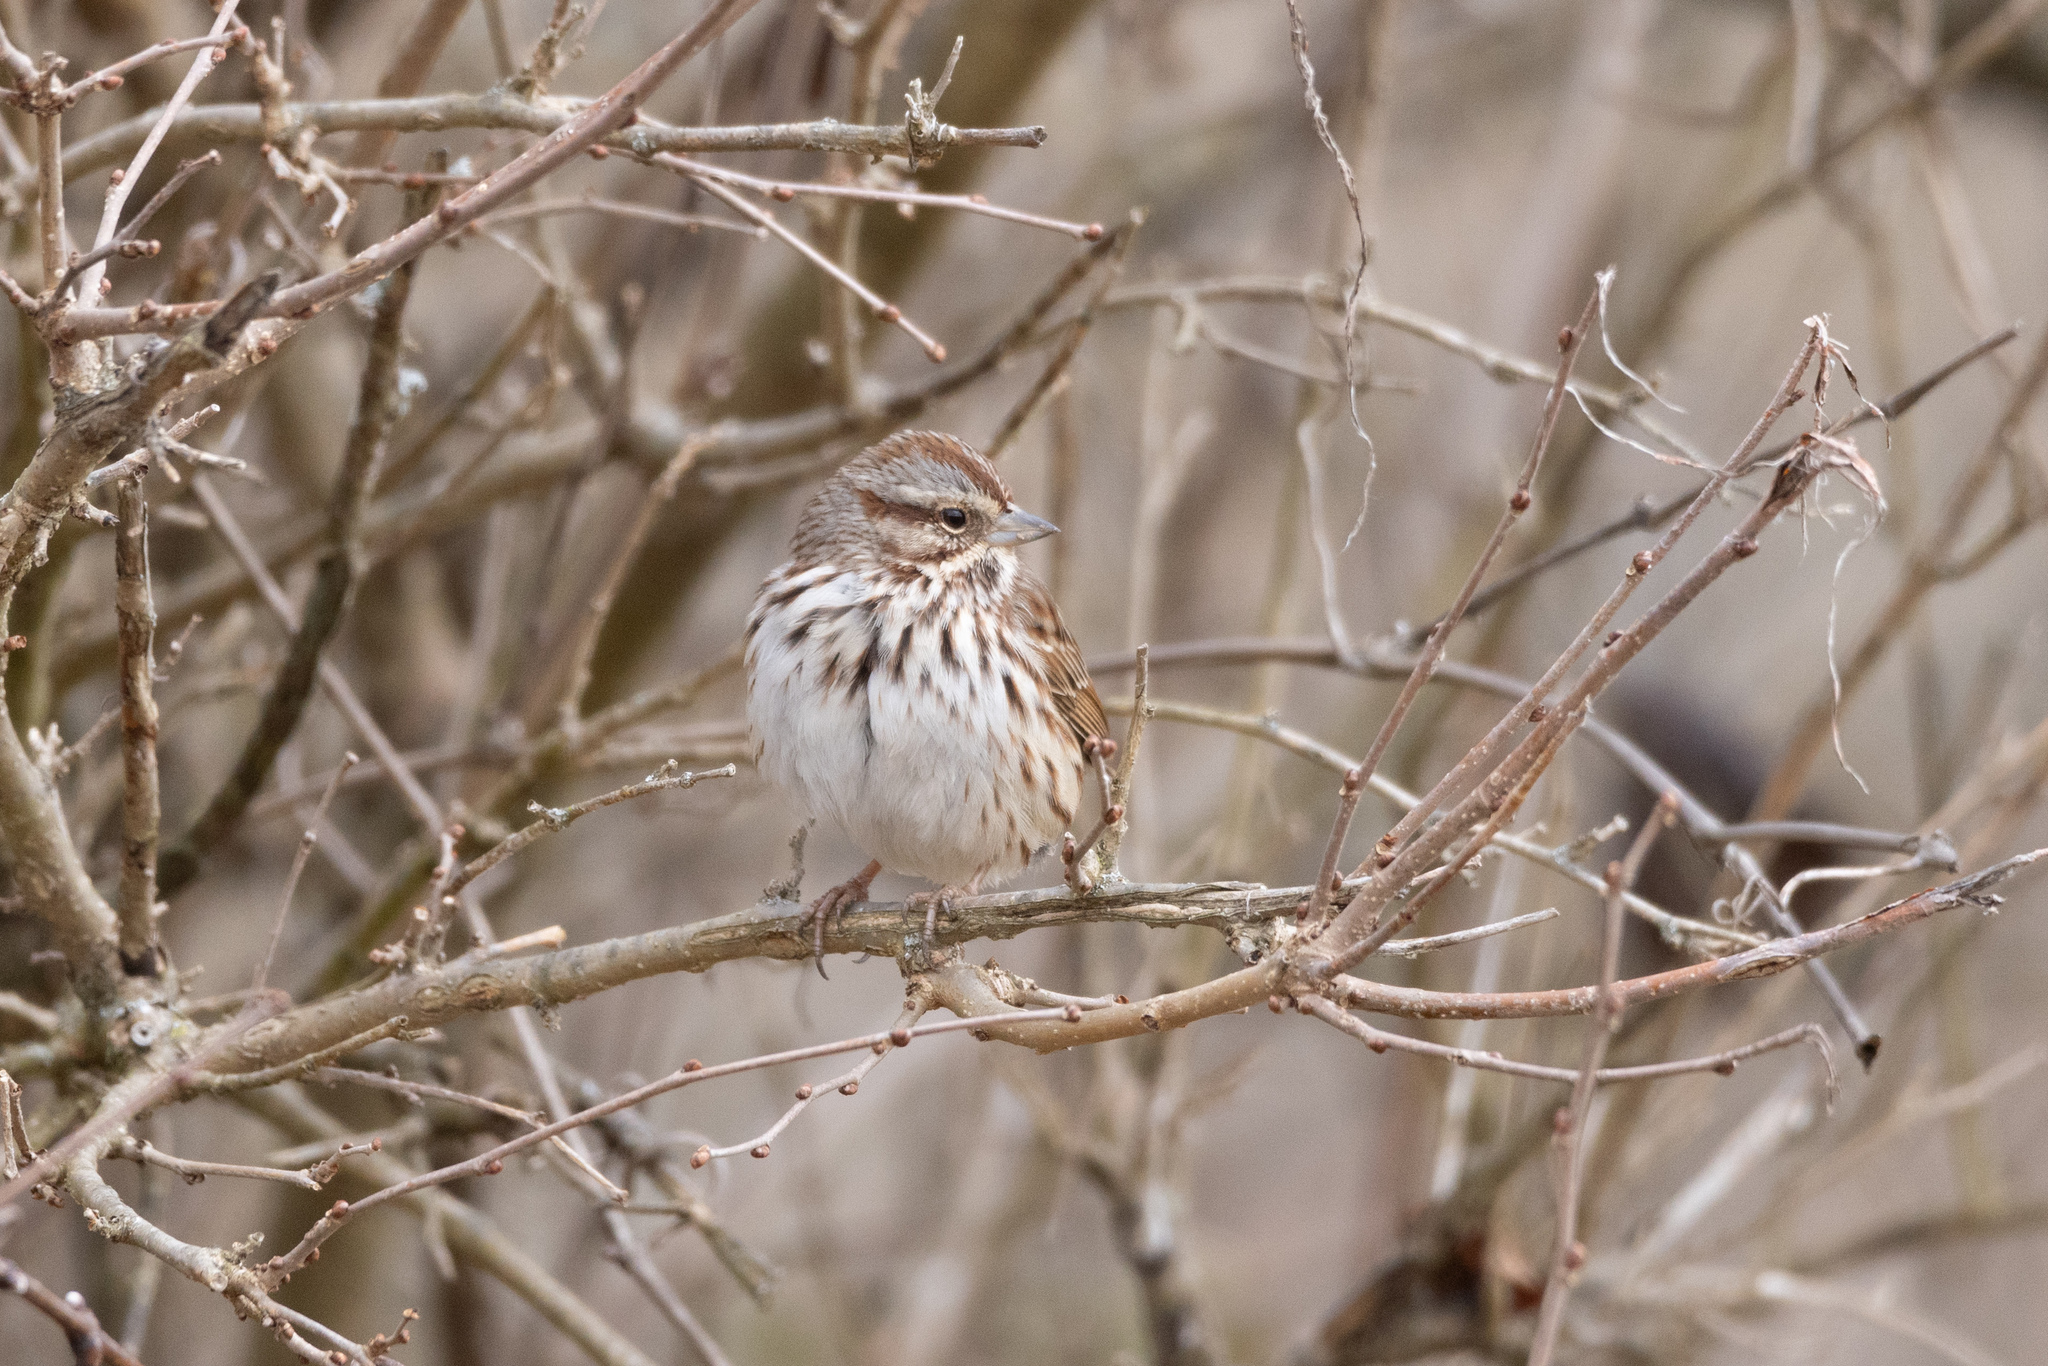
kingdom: Animalia
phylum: Chordata
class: Aves
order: Passeriformes
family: Passerellidae
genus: Melospiza
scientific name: Melospiza melodia
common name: Song sparrow
